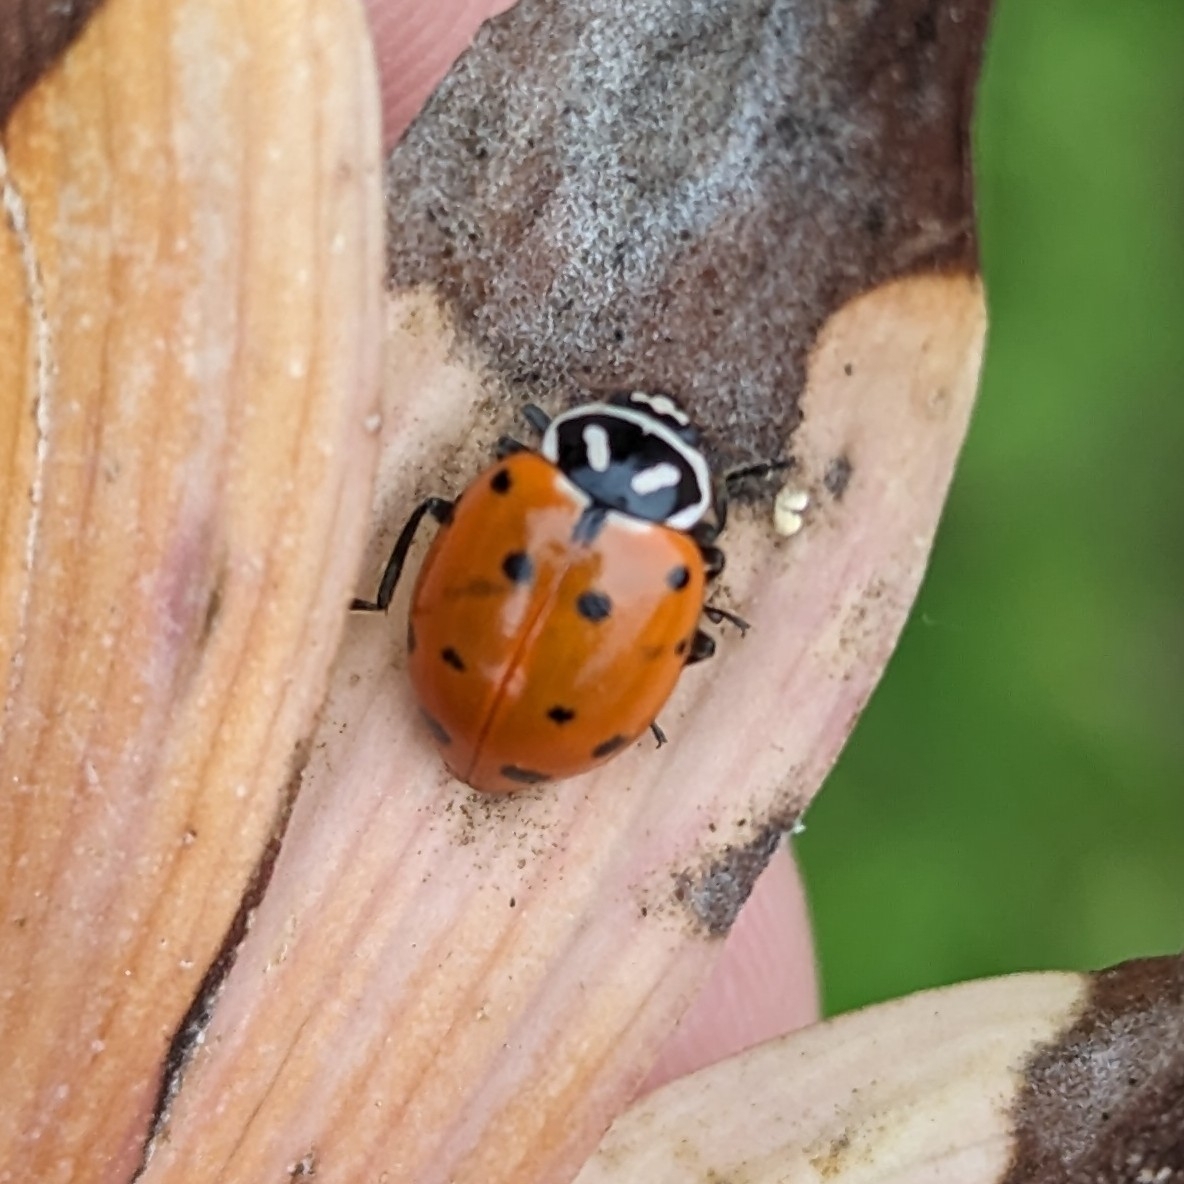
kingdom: Animalia
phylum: Arthropoda
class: Insecta
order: Coleoptera
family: Coccinellidae
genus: Hippodamia
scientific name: Hippodamia convergens
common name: Convergent lady beetle
